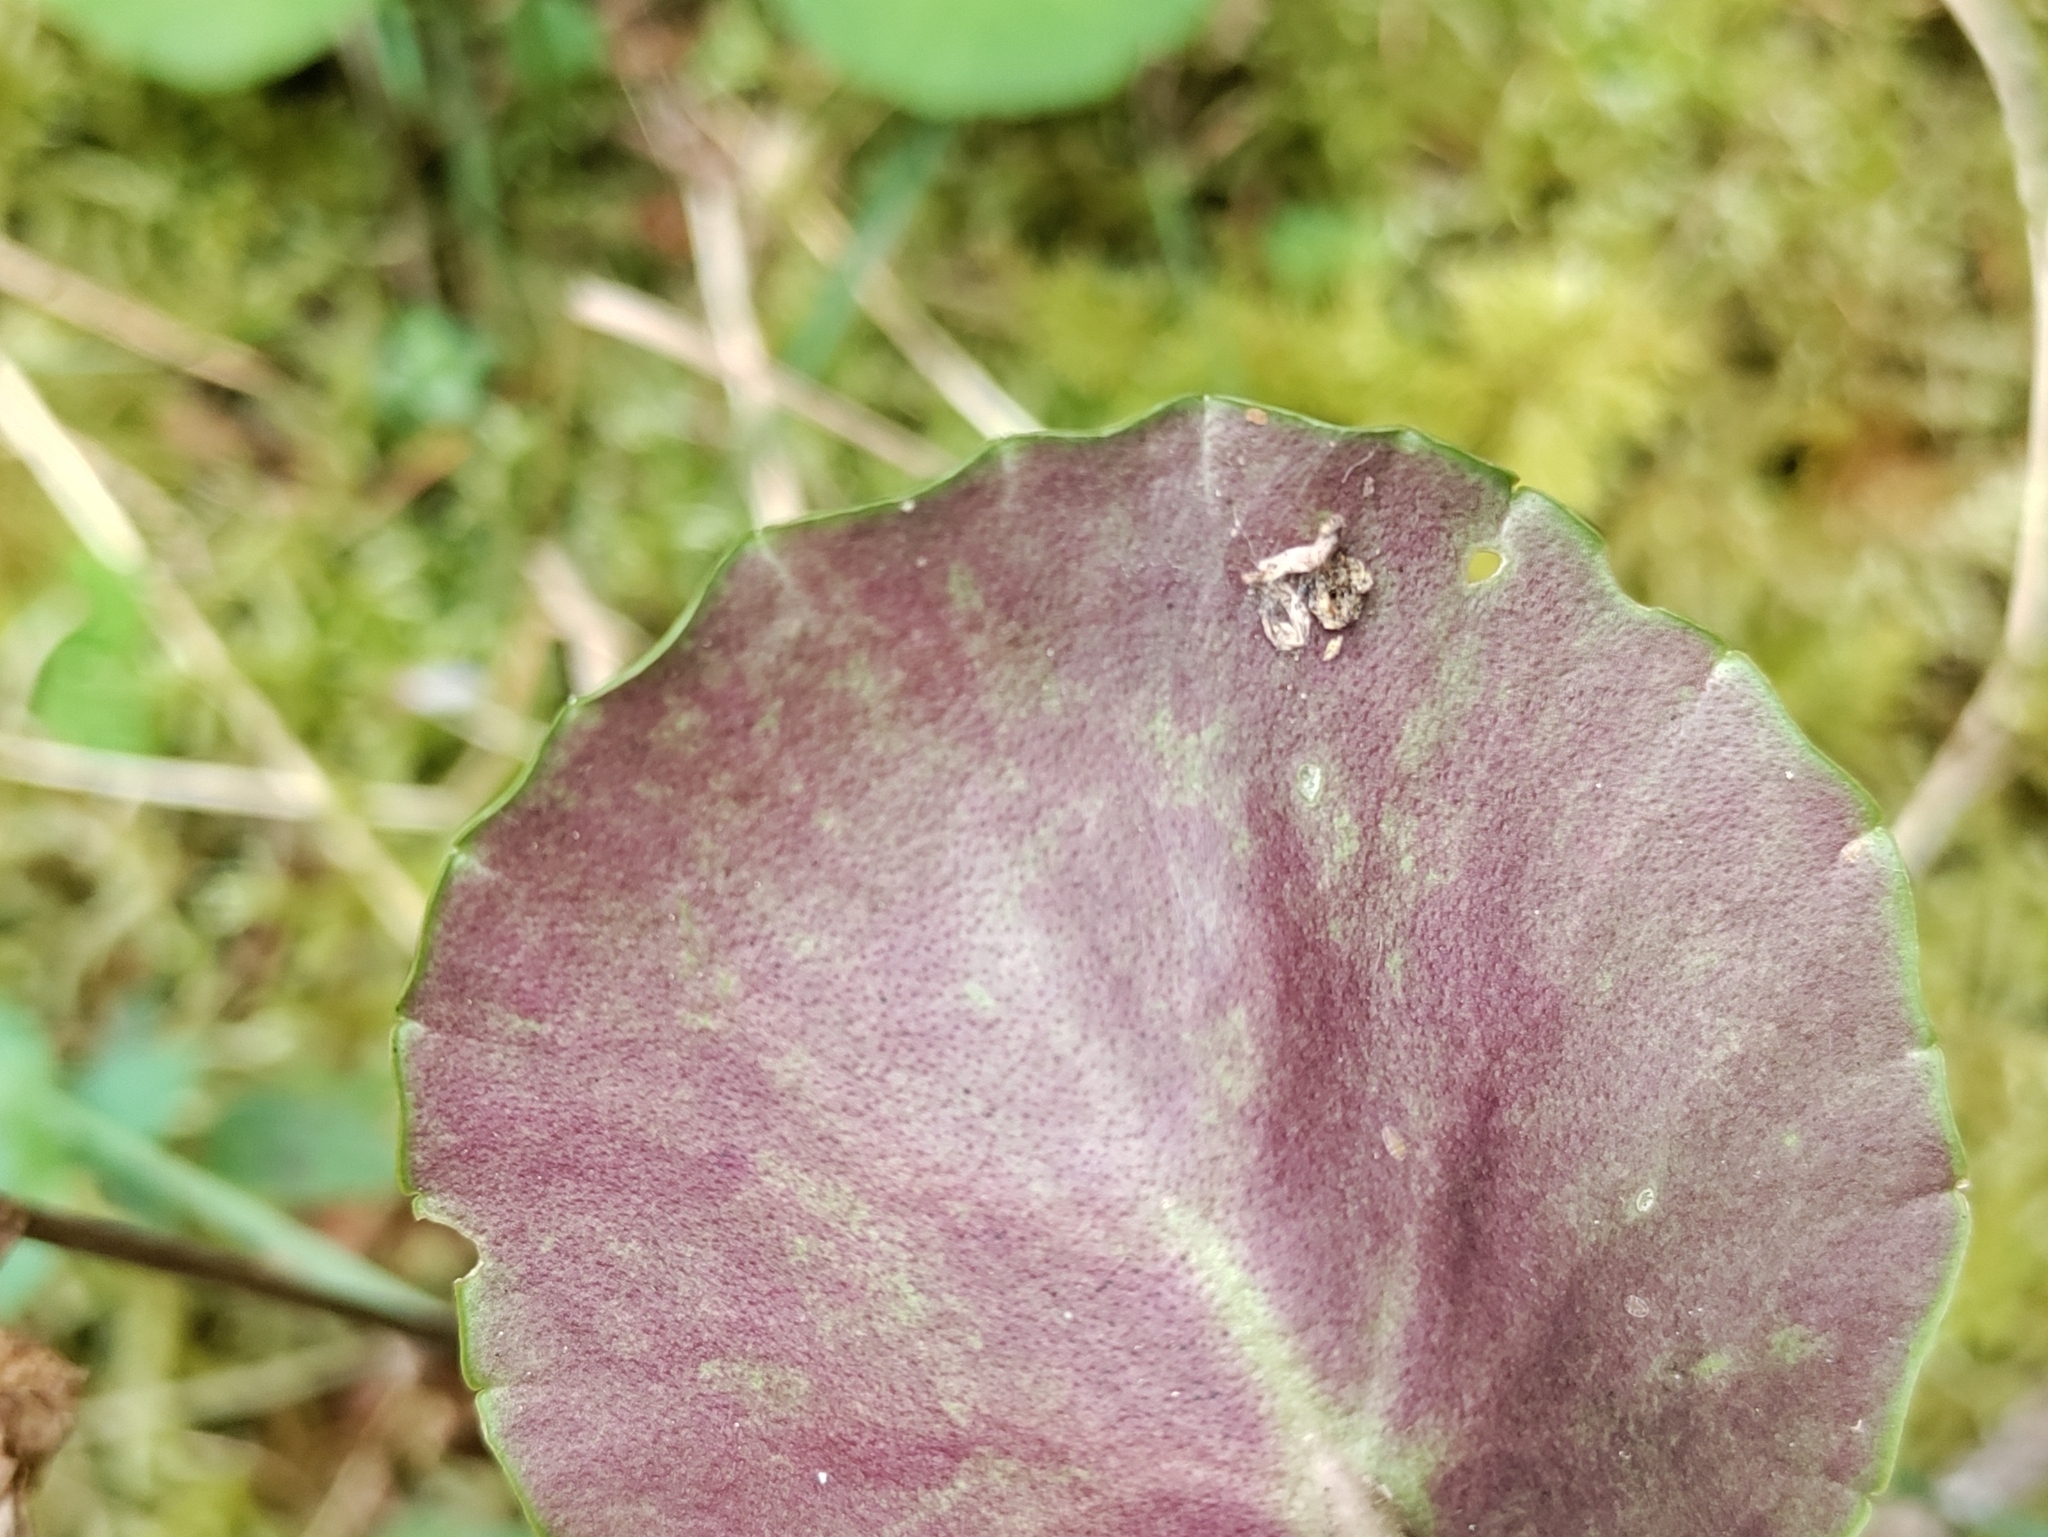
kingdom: Plantae
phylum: Tracheophyta
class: Magnoliopsida
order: Ericales
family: Primulaceae
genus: Soldanella
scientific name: Soldanella montana
